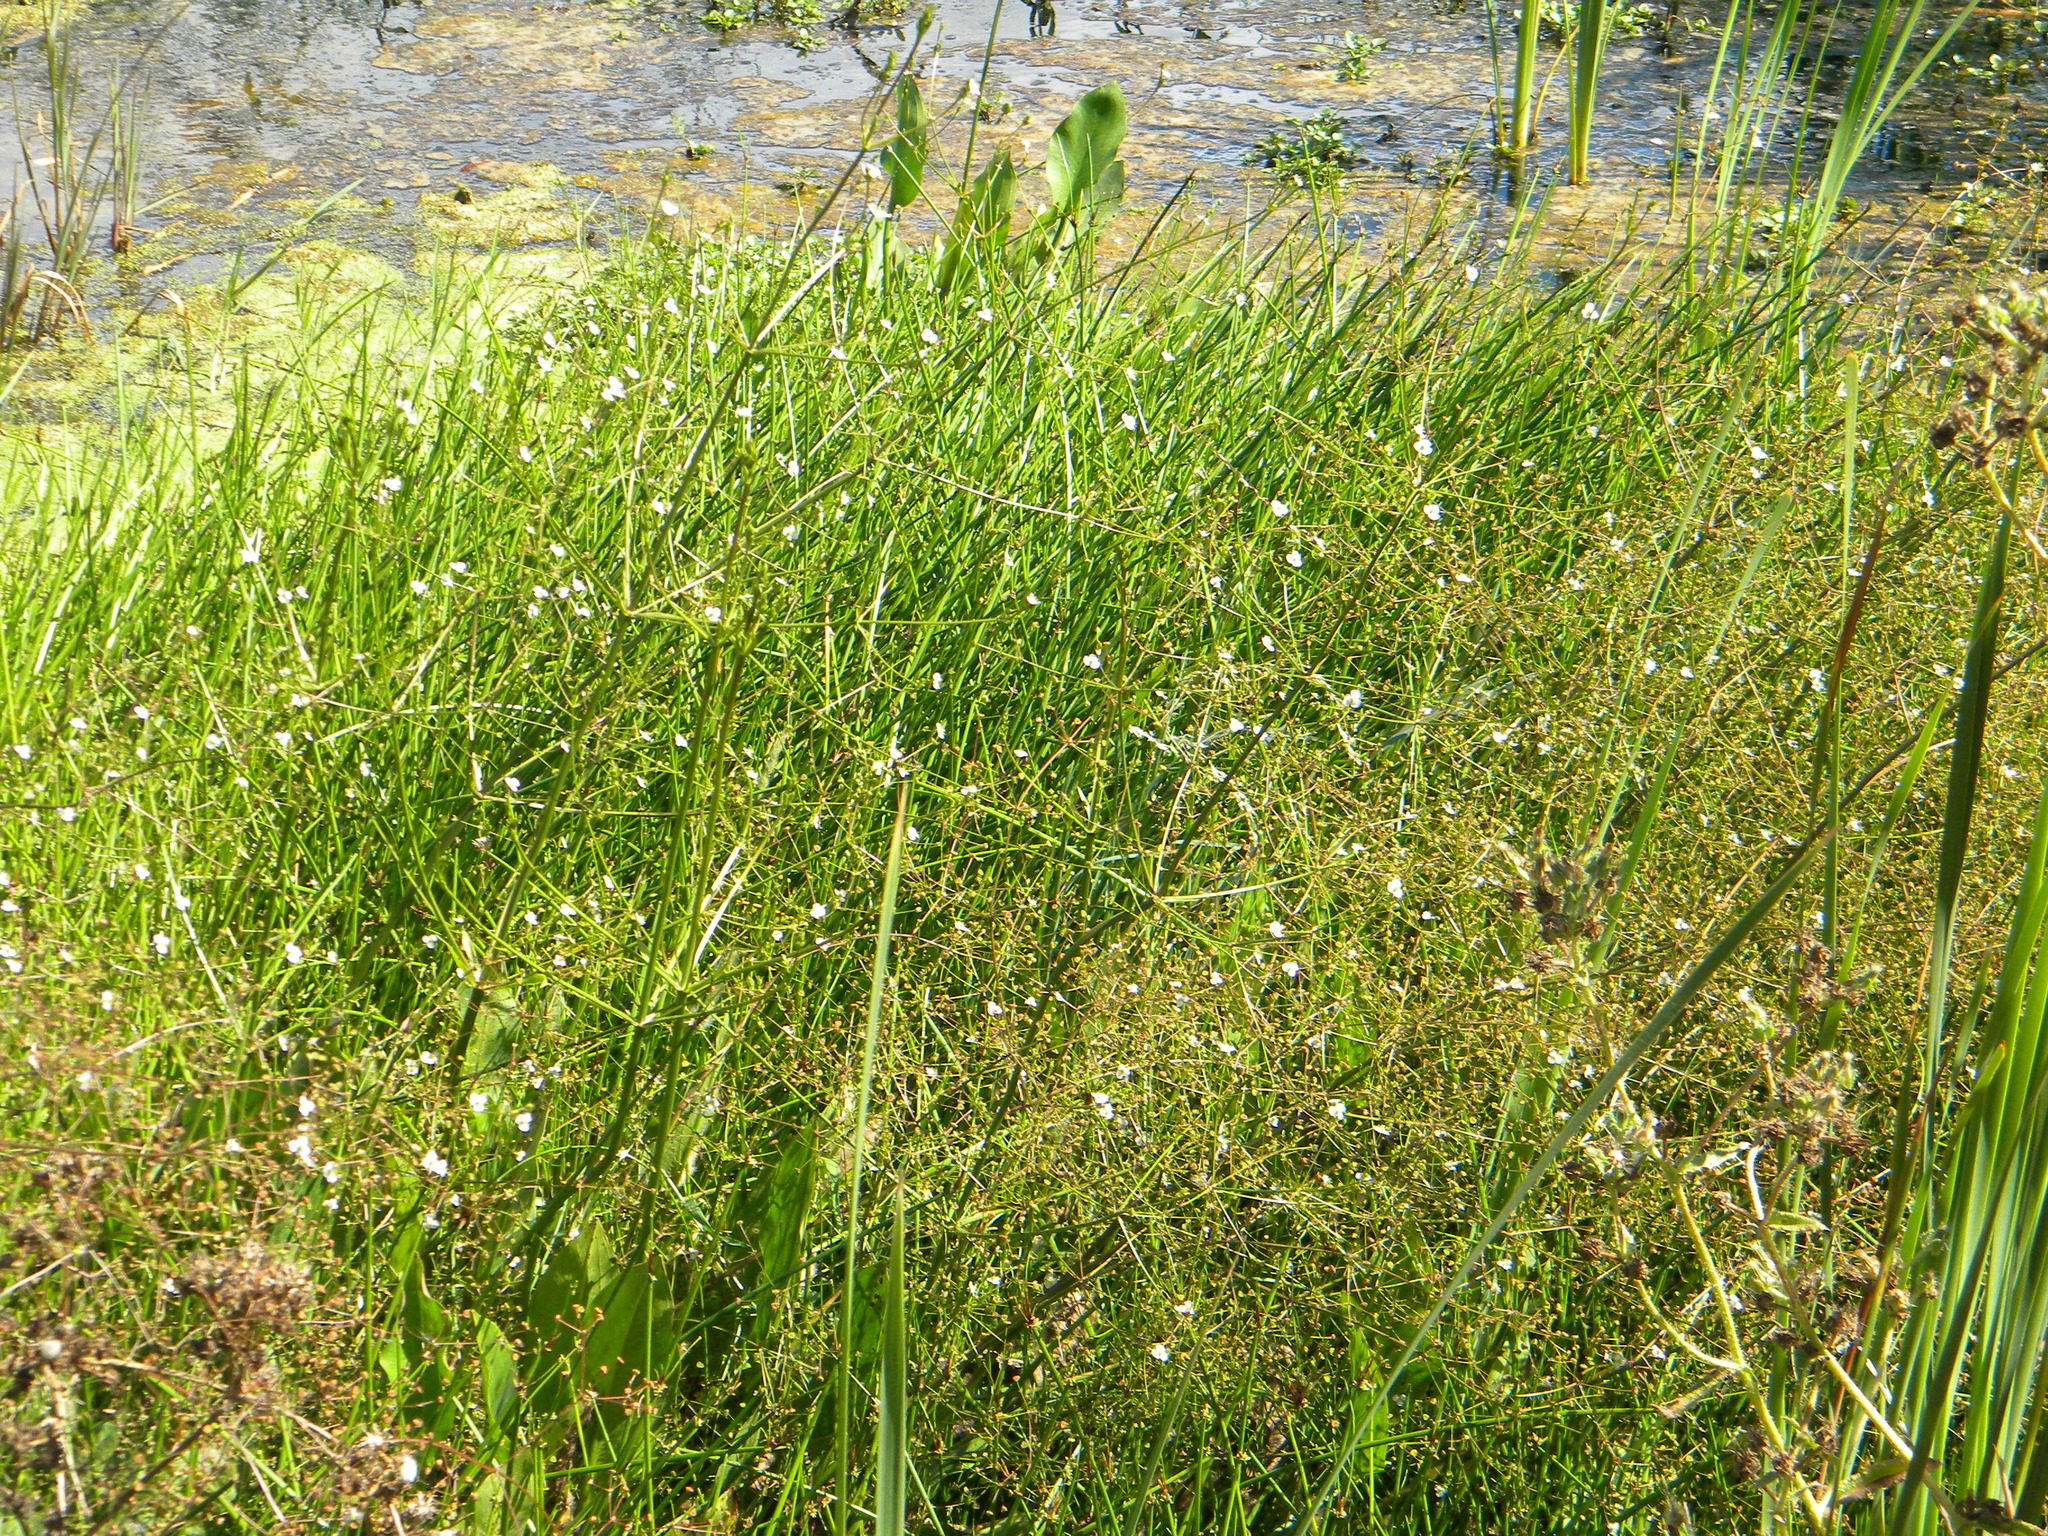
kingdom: Plantae
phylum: Tracheophyta
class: Liliopsida
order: Alismatales
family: Alismataceae
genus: Alisma
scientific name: Alisma plantago-aquatica
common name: Water-plantain
